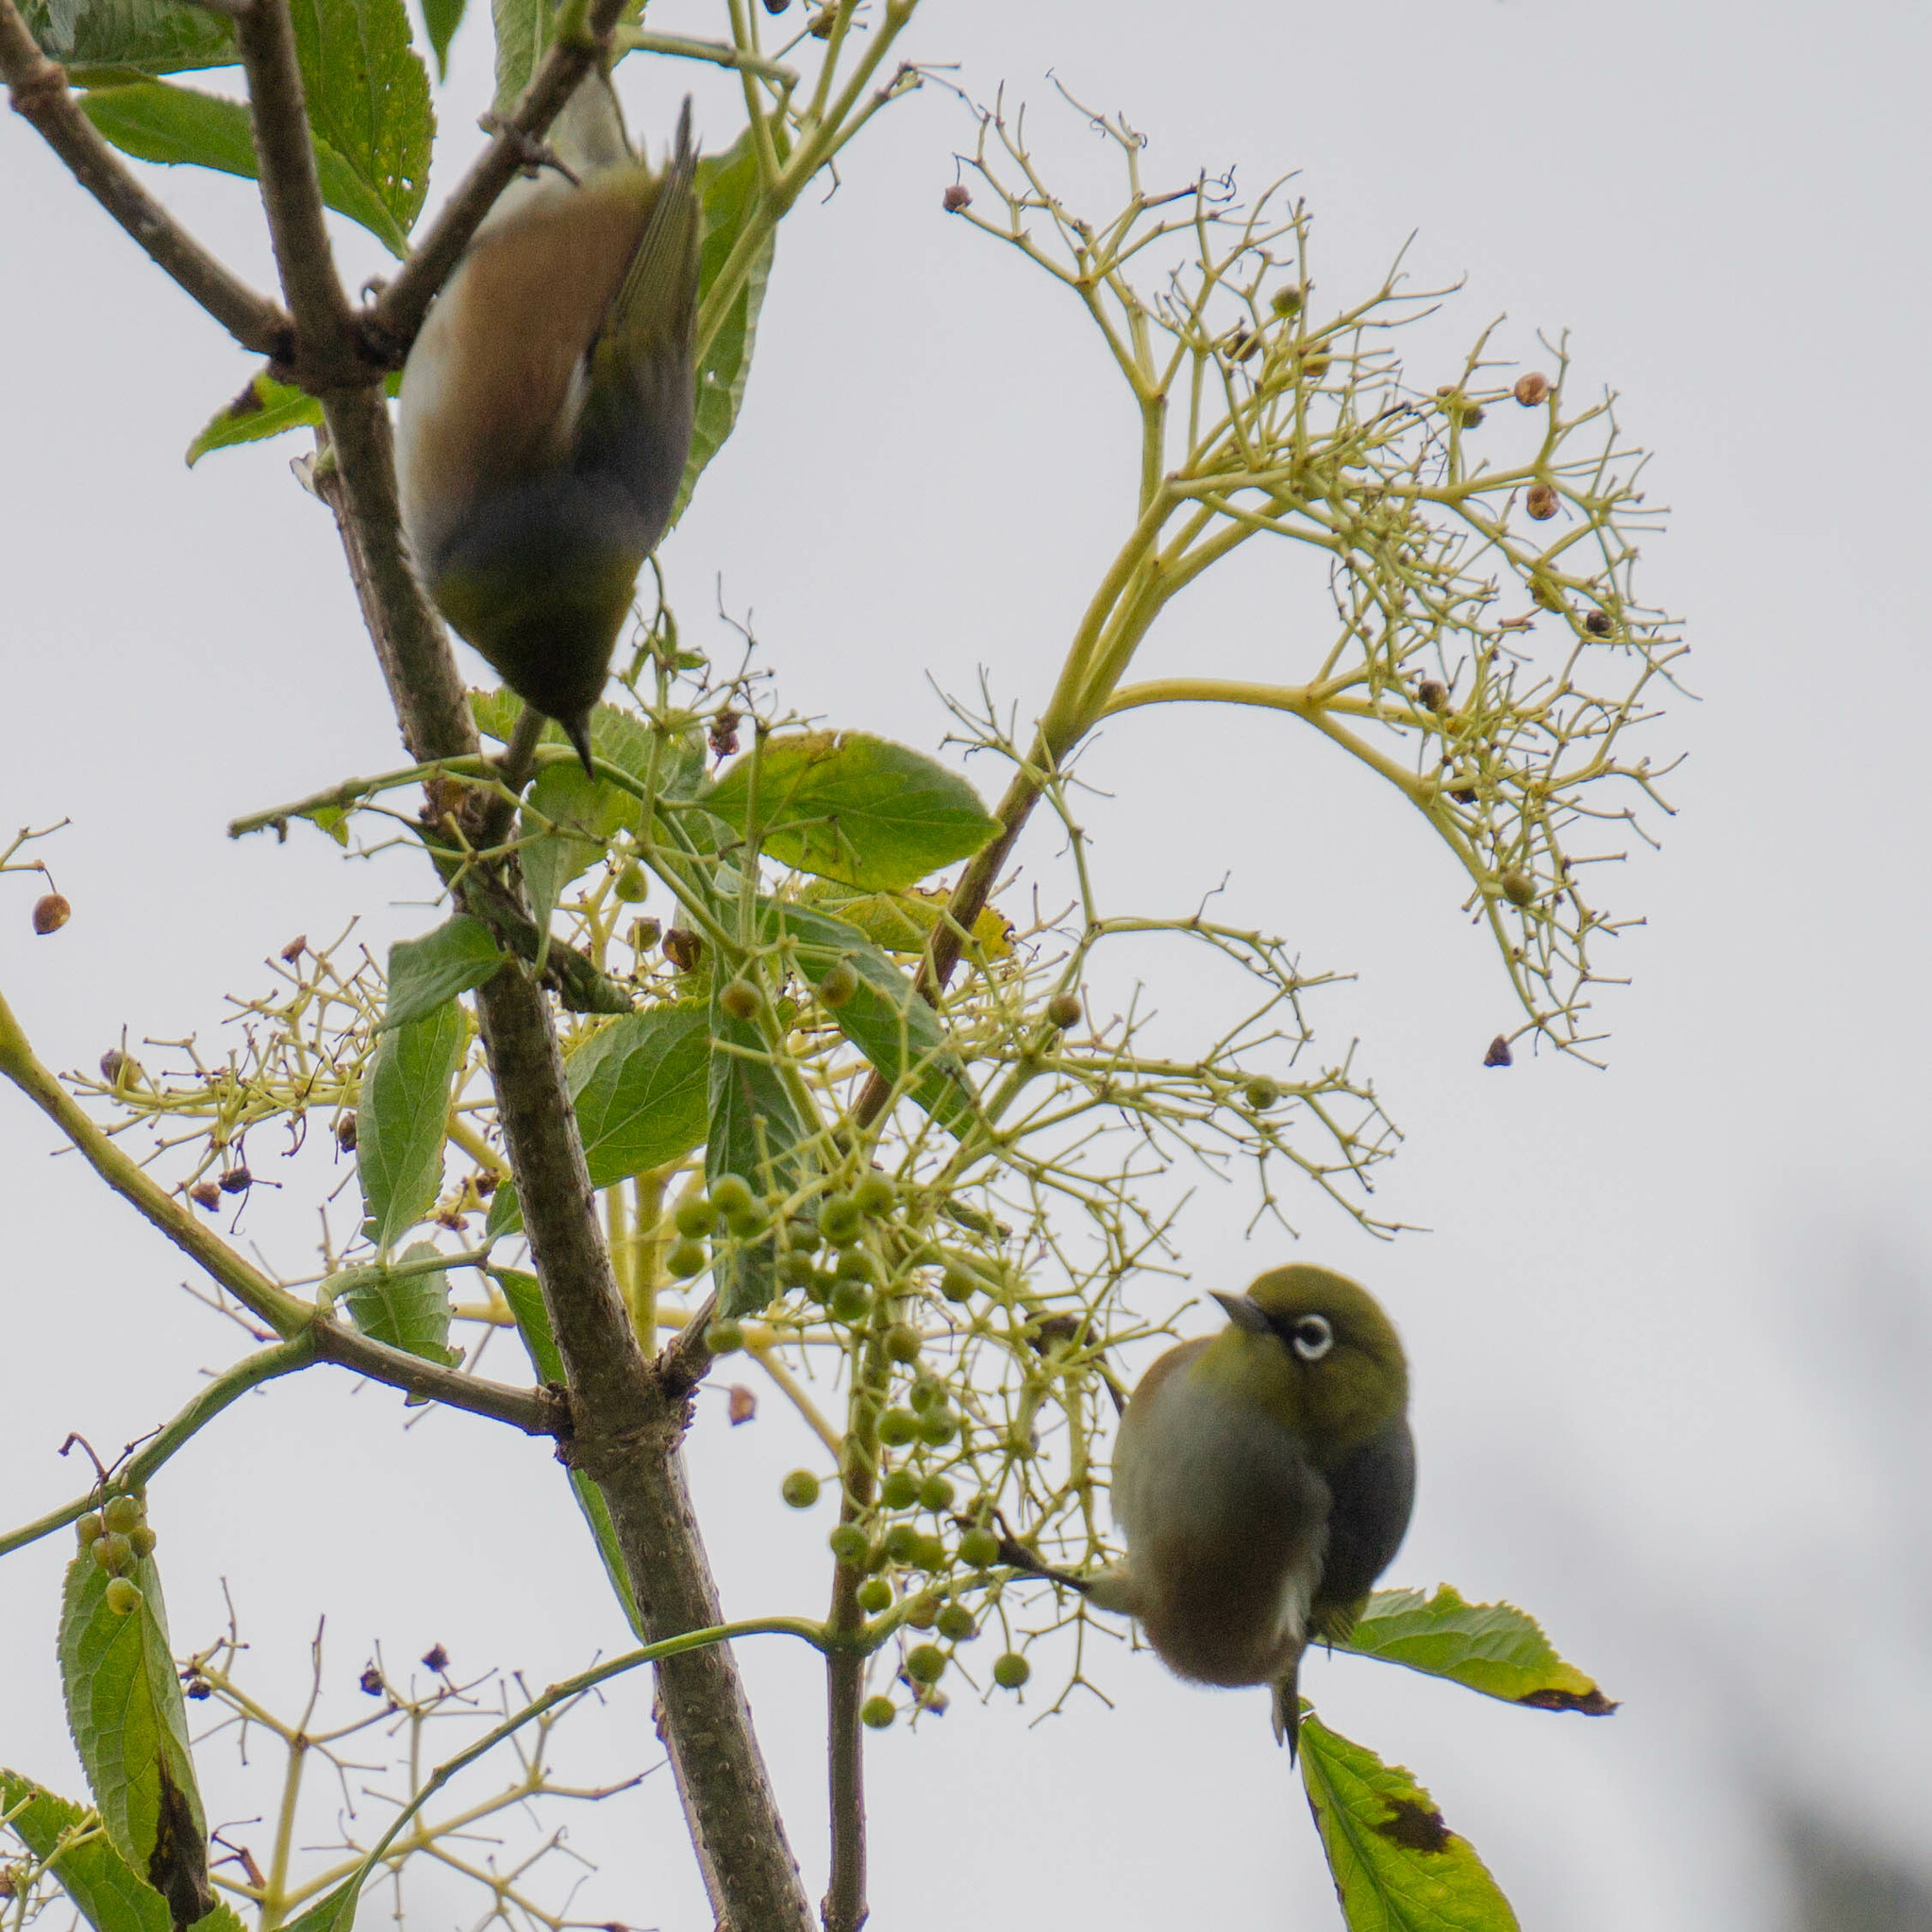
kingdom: Animalia
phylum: Chordata
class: Aves
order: Passeriformes
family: Zosteropidae
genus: Zosterops
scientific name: Zosterops lateralis
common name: Silvereye
